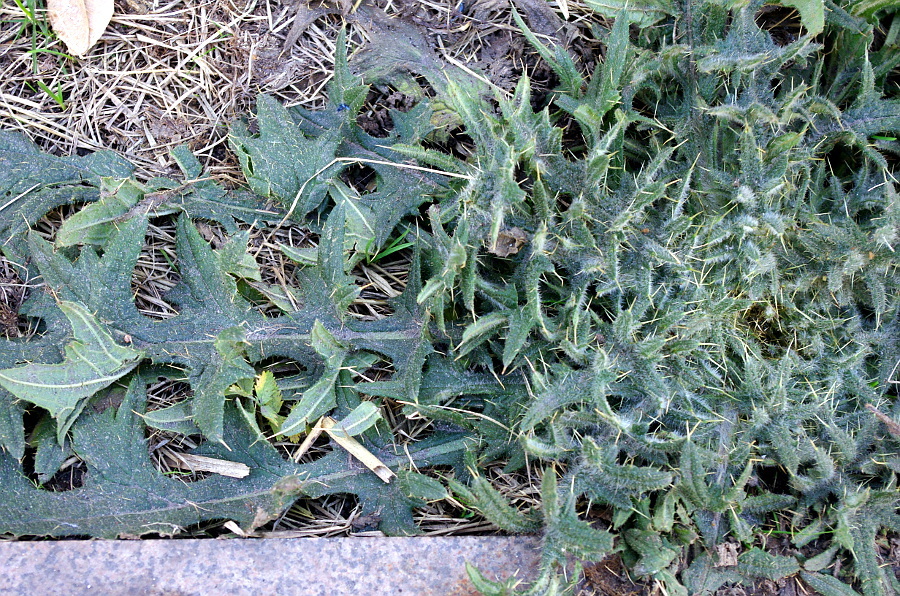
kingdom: Plantae
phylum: Tracheophyta
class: Magnoliopsida
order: Asterales
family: Asteraceae
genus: Cirsium
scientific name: Cirsium vulgare
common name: Bull thistle
